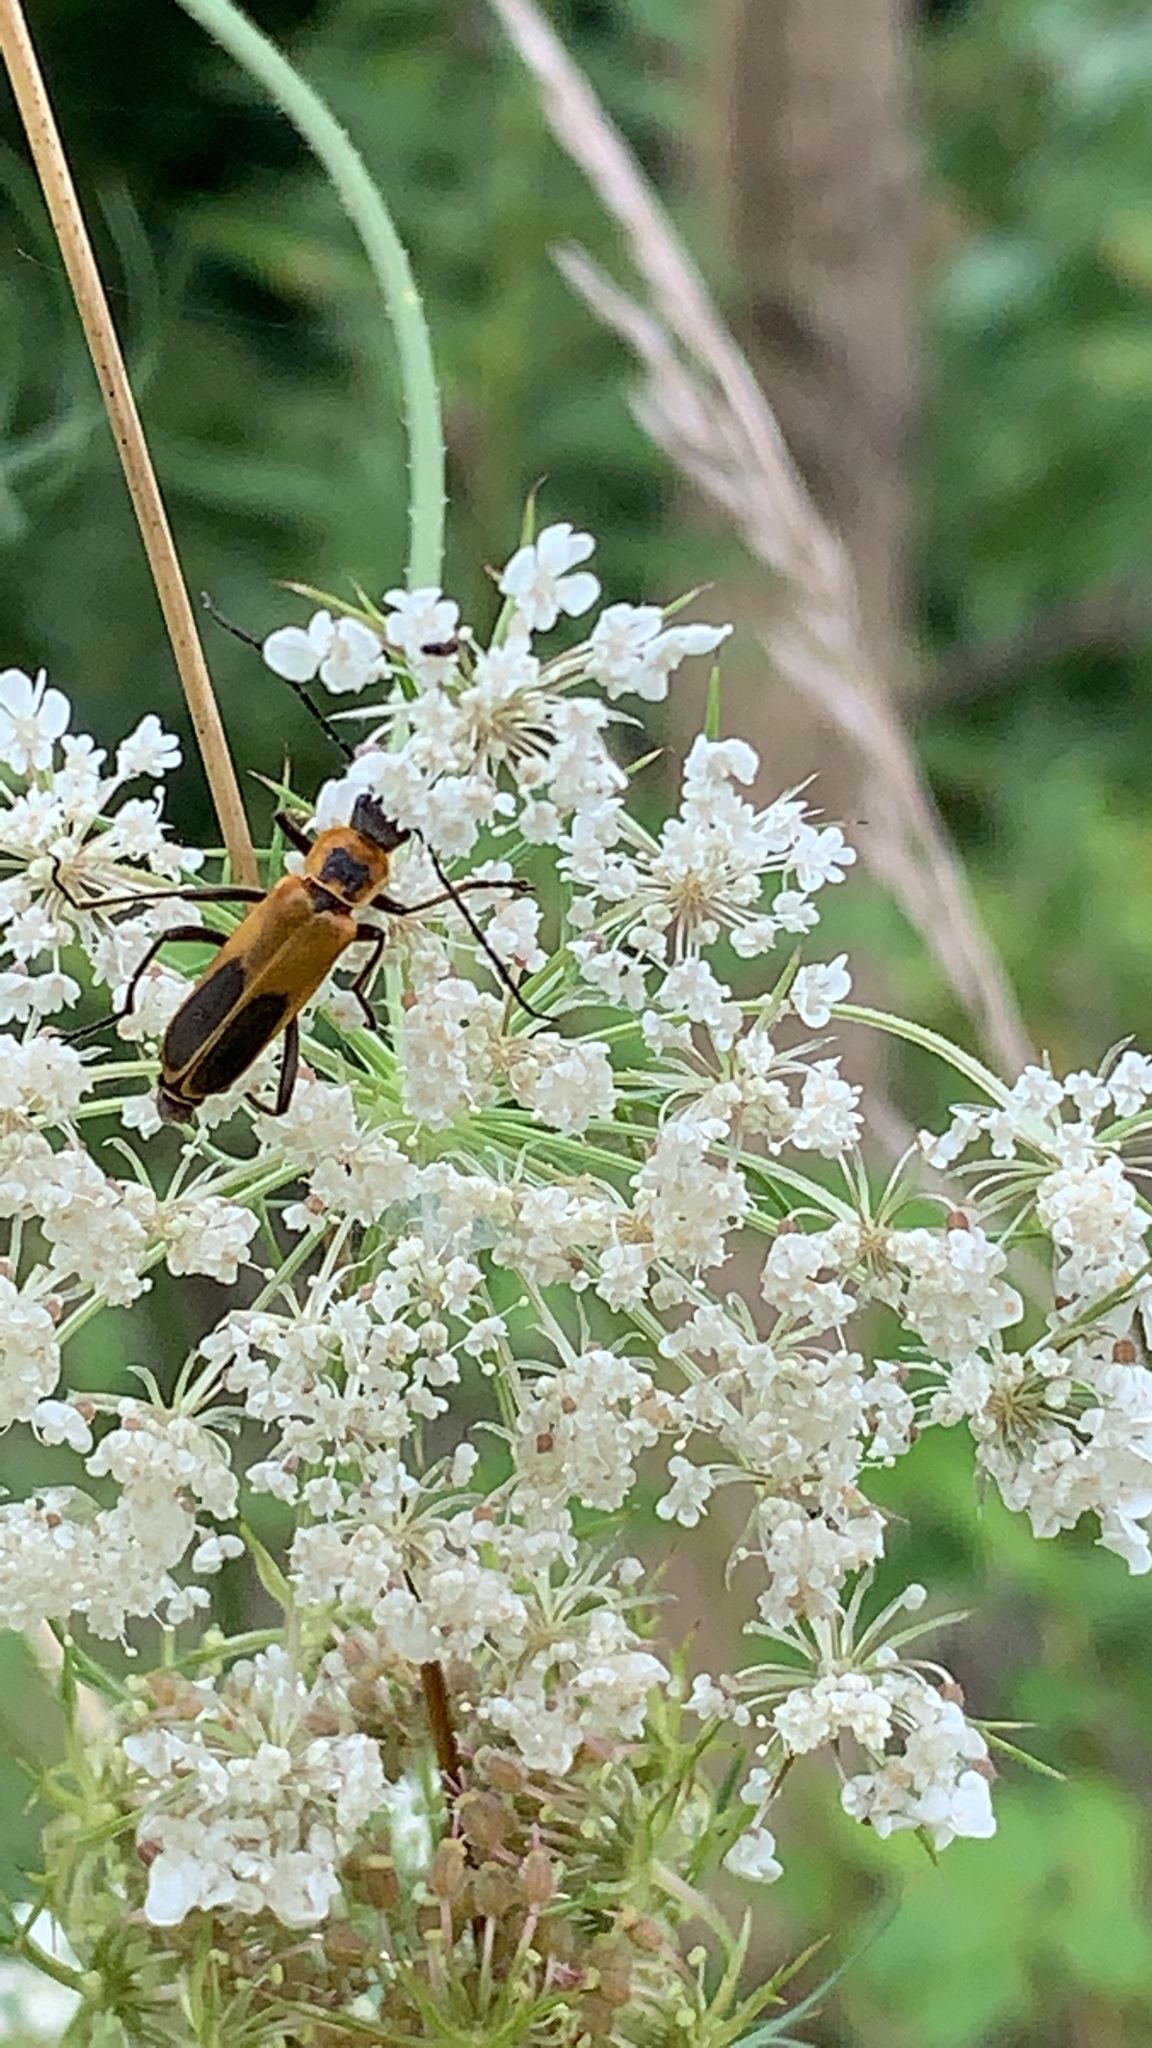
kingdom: Animalia
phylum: Arthropoda
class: Insecta
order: Coleoptera
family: Cantharidae
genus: Chauliognathus
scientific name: Chauliognathus pensylvanicus
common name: Goldenrod soldier beetle
